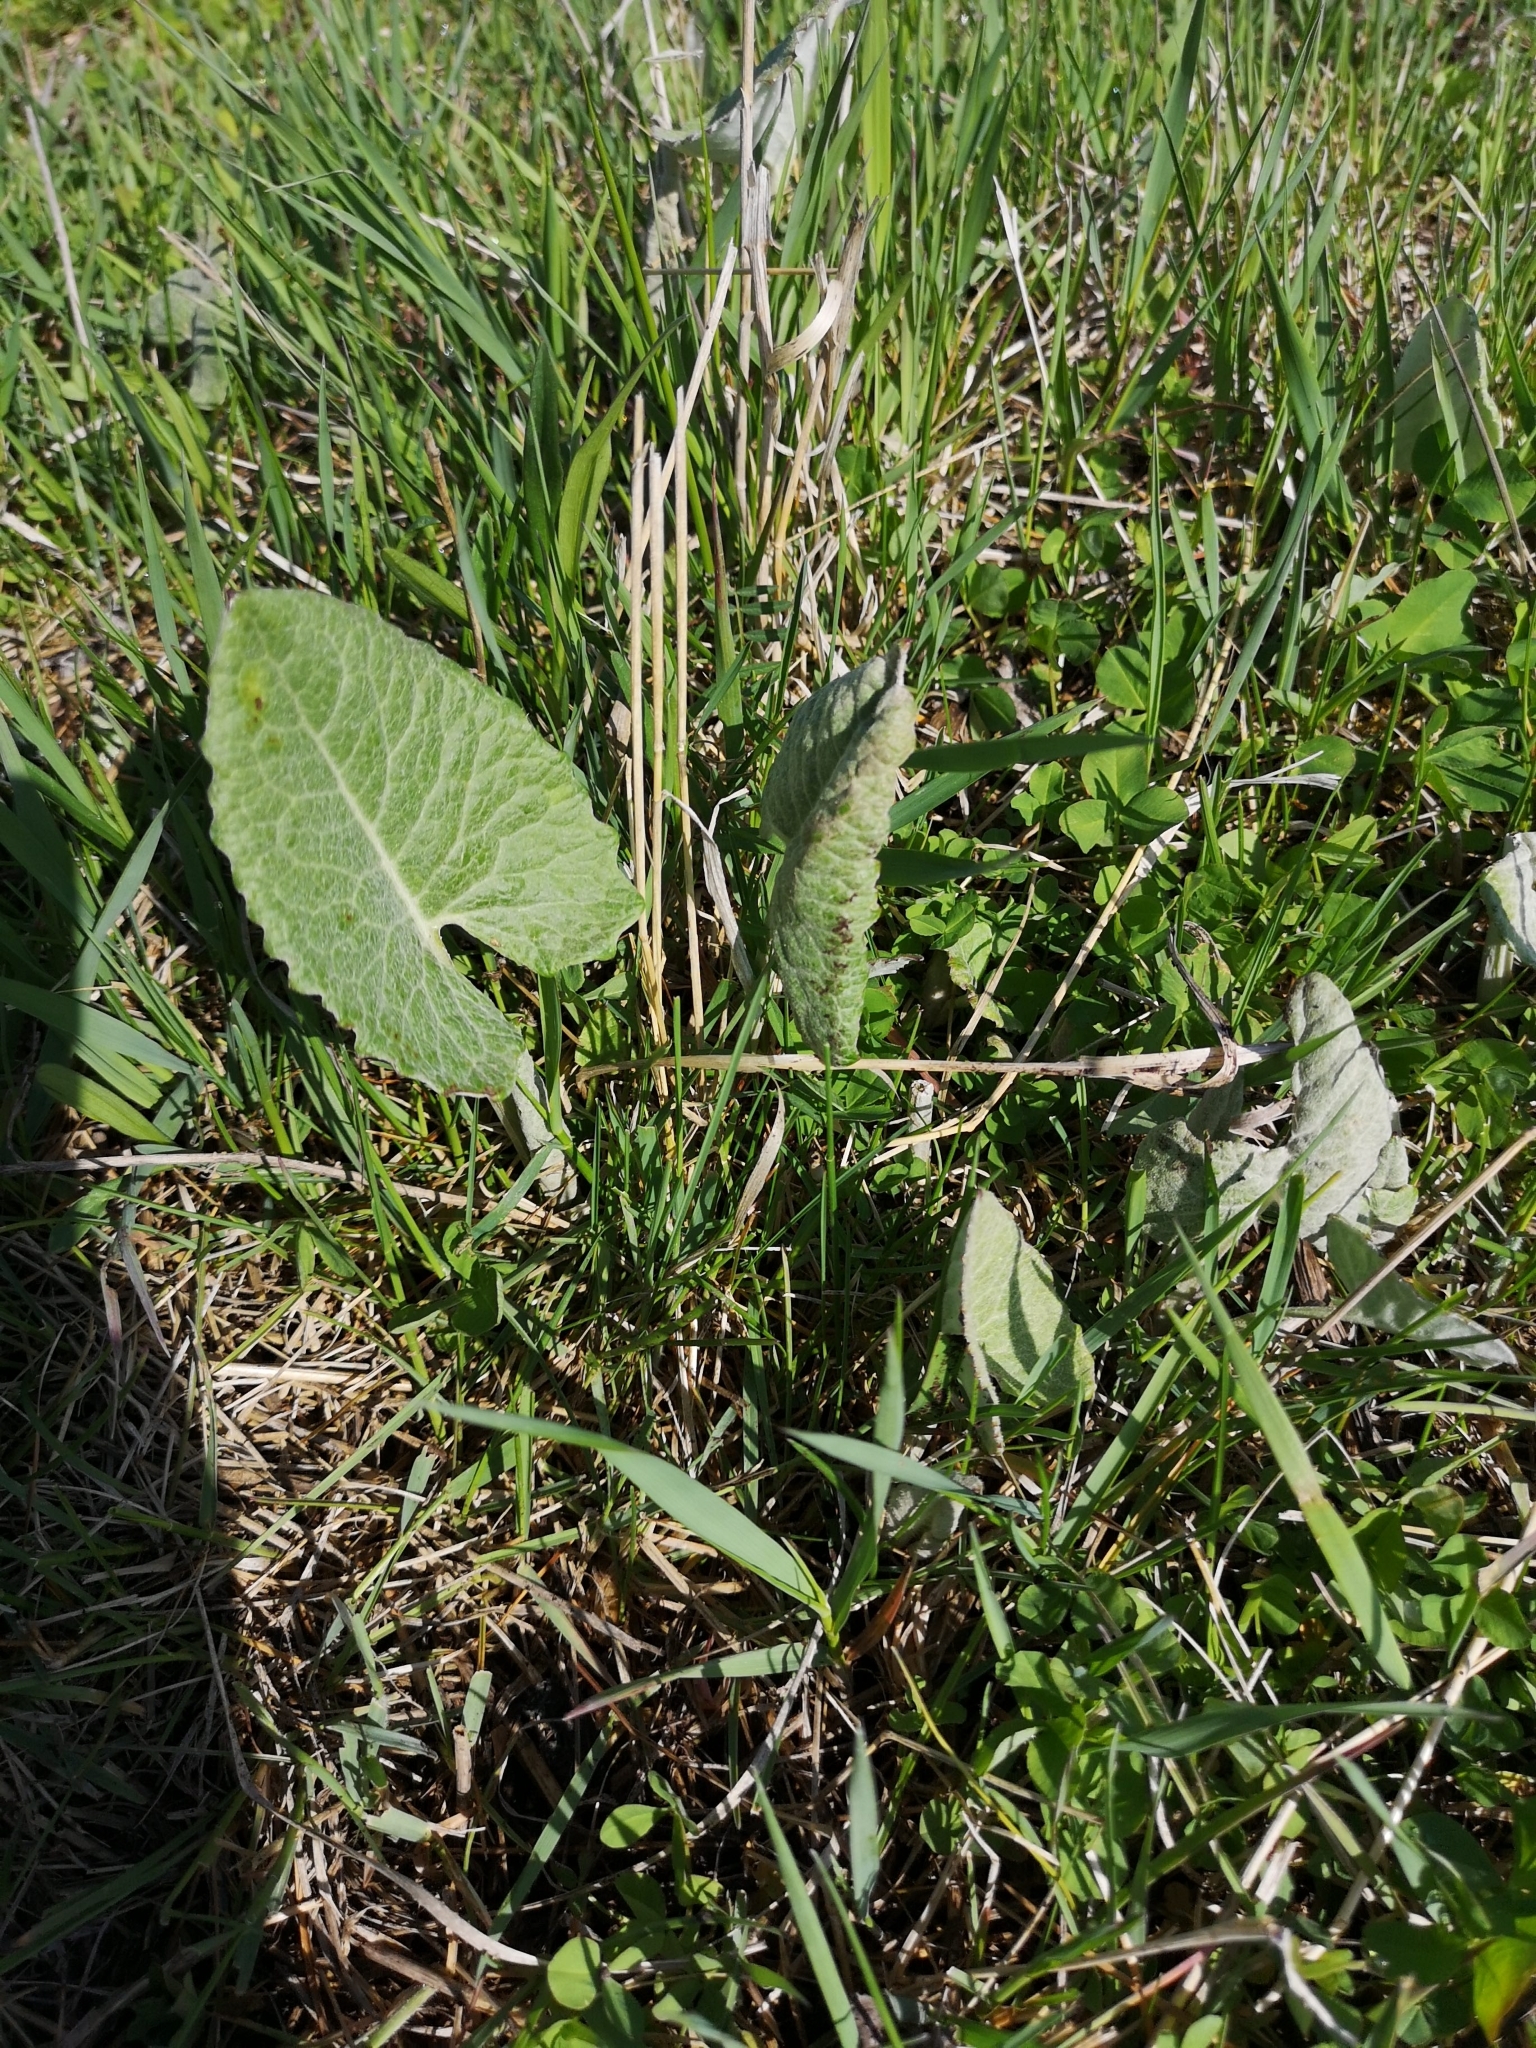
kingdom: Plantae
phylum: Tracheophyta
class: Magnoliopsida
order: Asterales
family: Asteraceae
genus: Petasites
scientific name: Petasites frigidus
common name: Arctic butterbur
